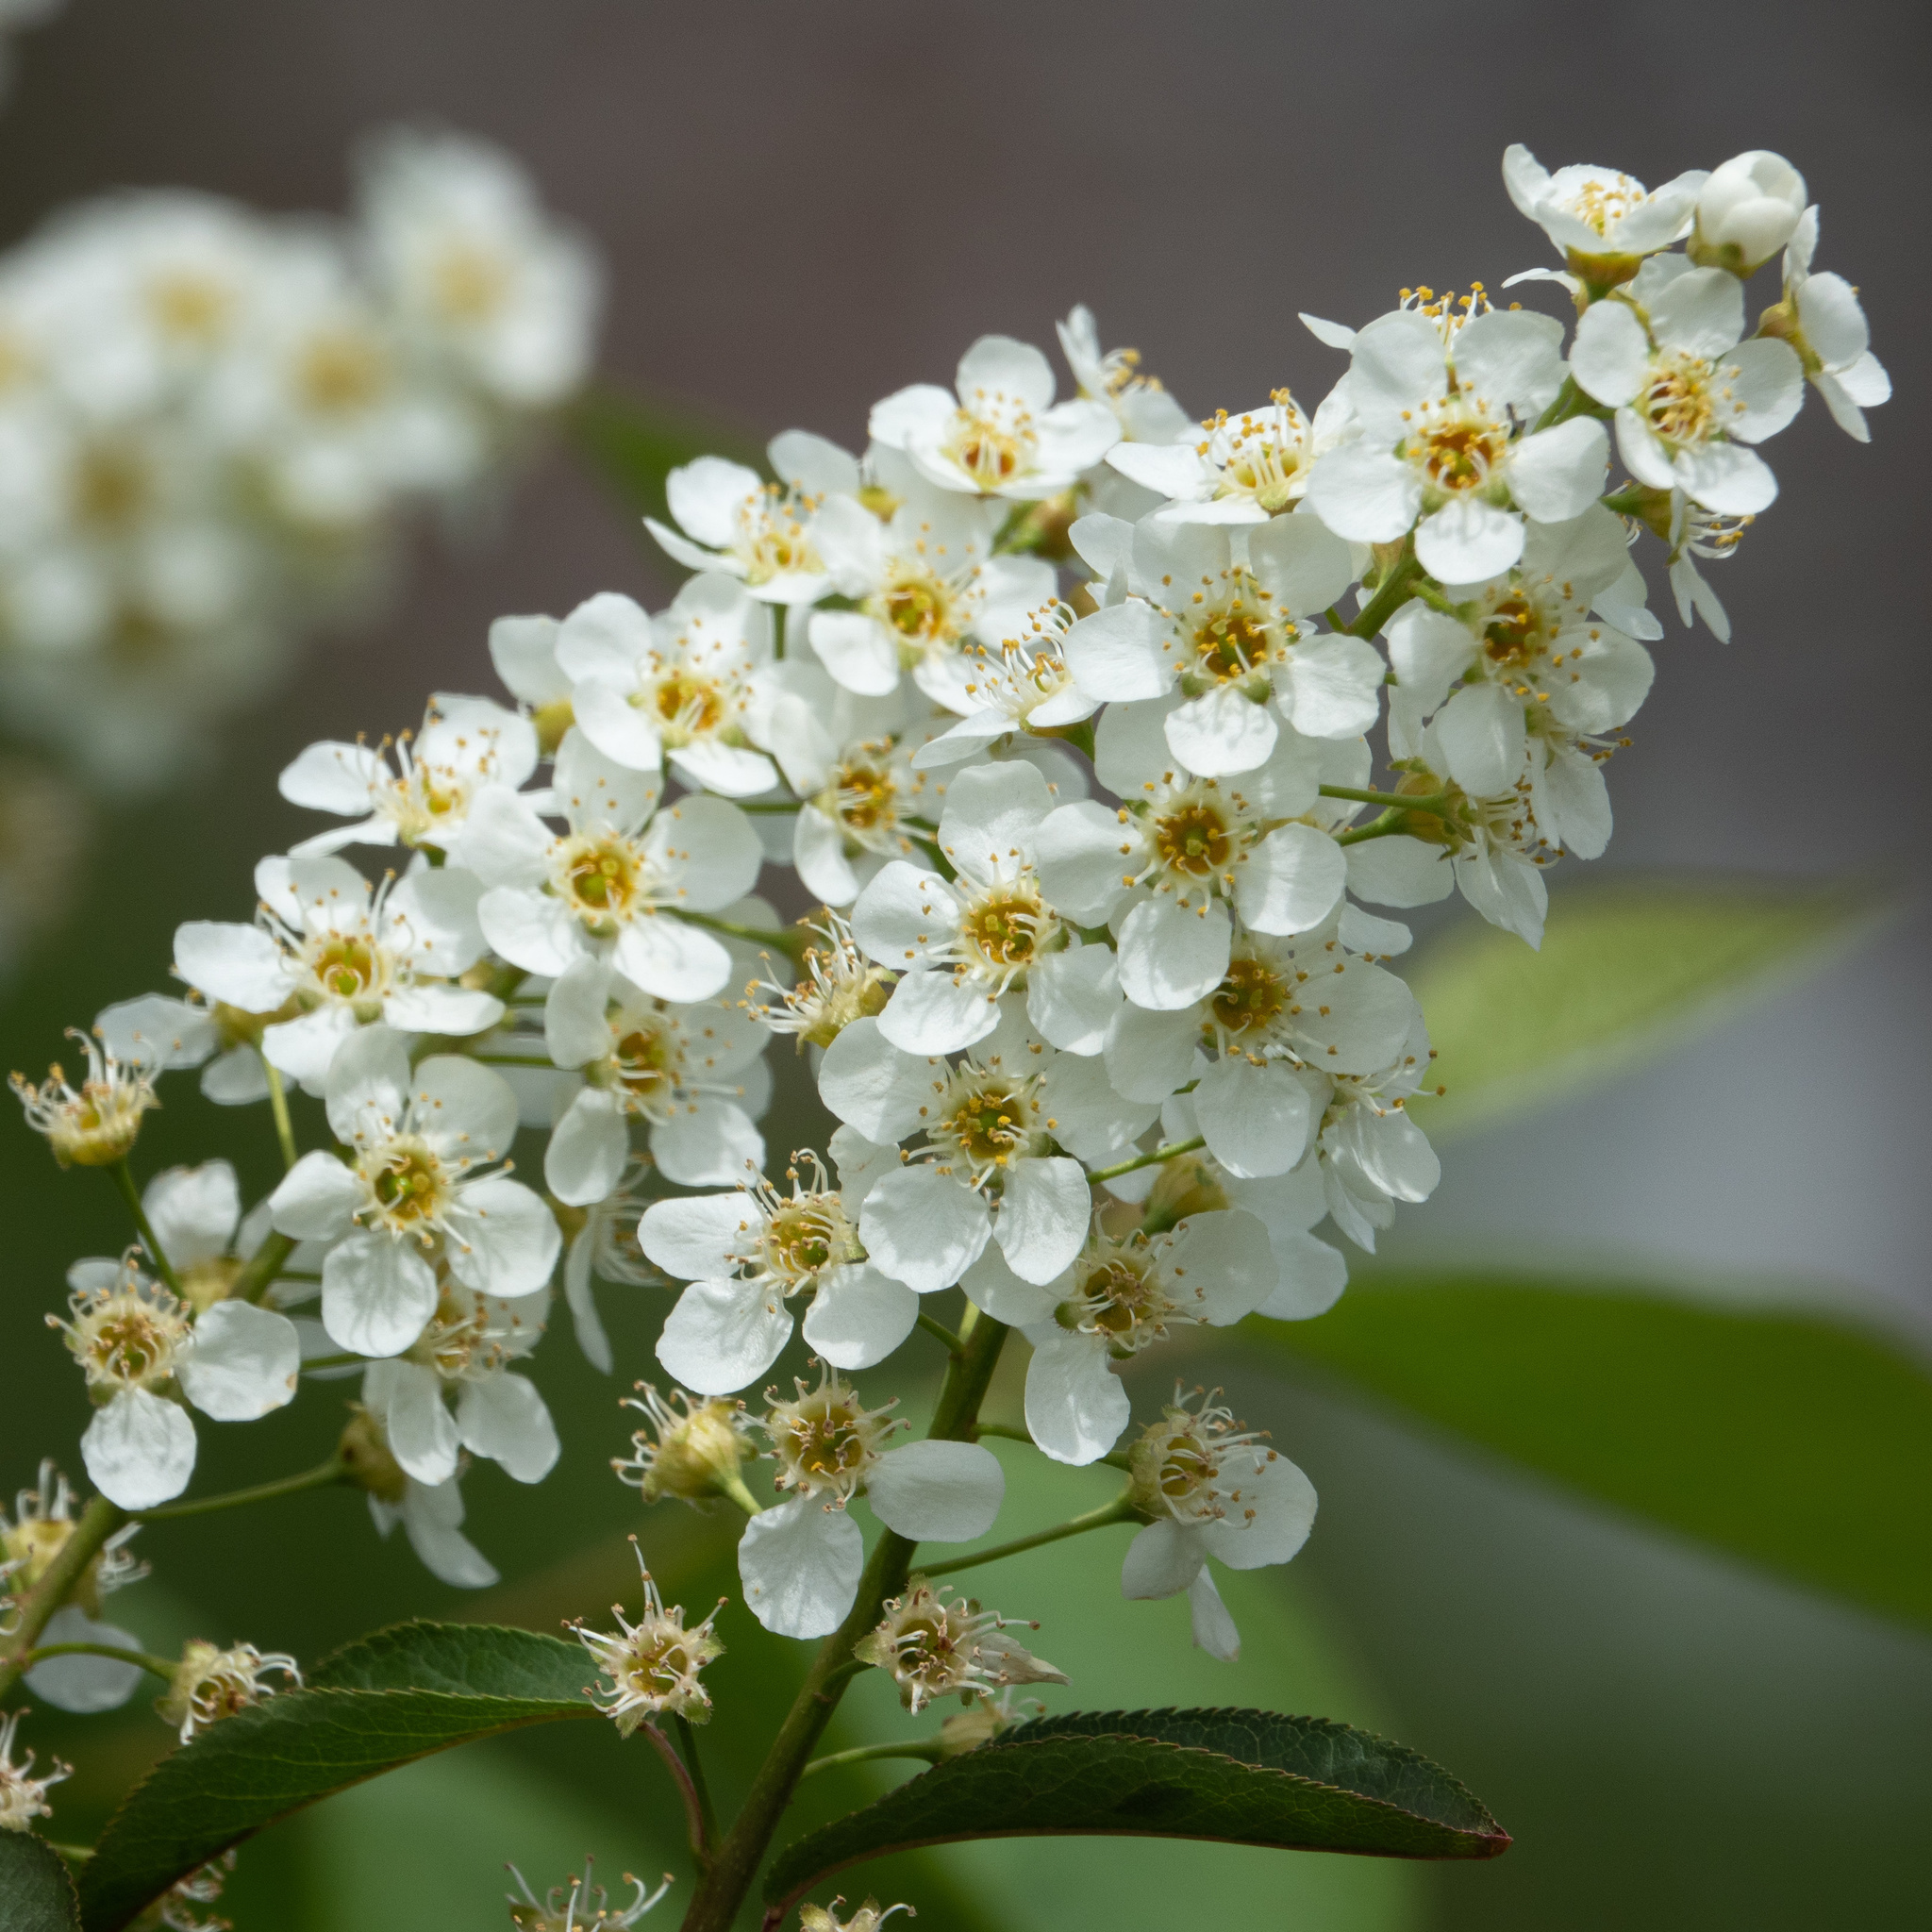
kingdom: Plantae
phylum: Tracheophyta
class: Magnoliopsida
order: Rosales
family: Rosaceae
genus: Prunus
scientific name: Prunus padus
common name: Bird cherry
